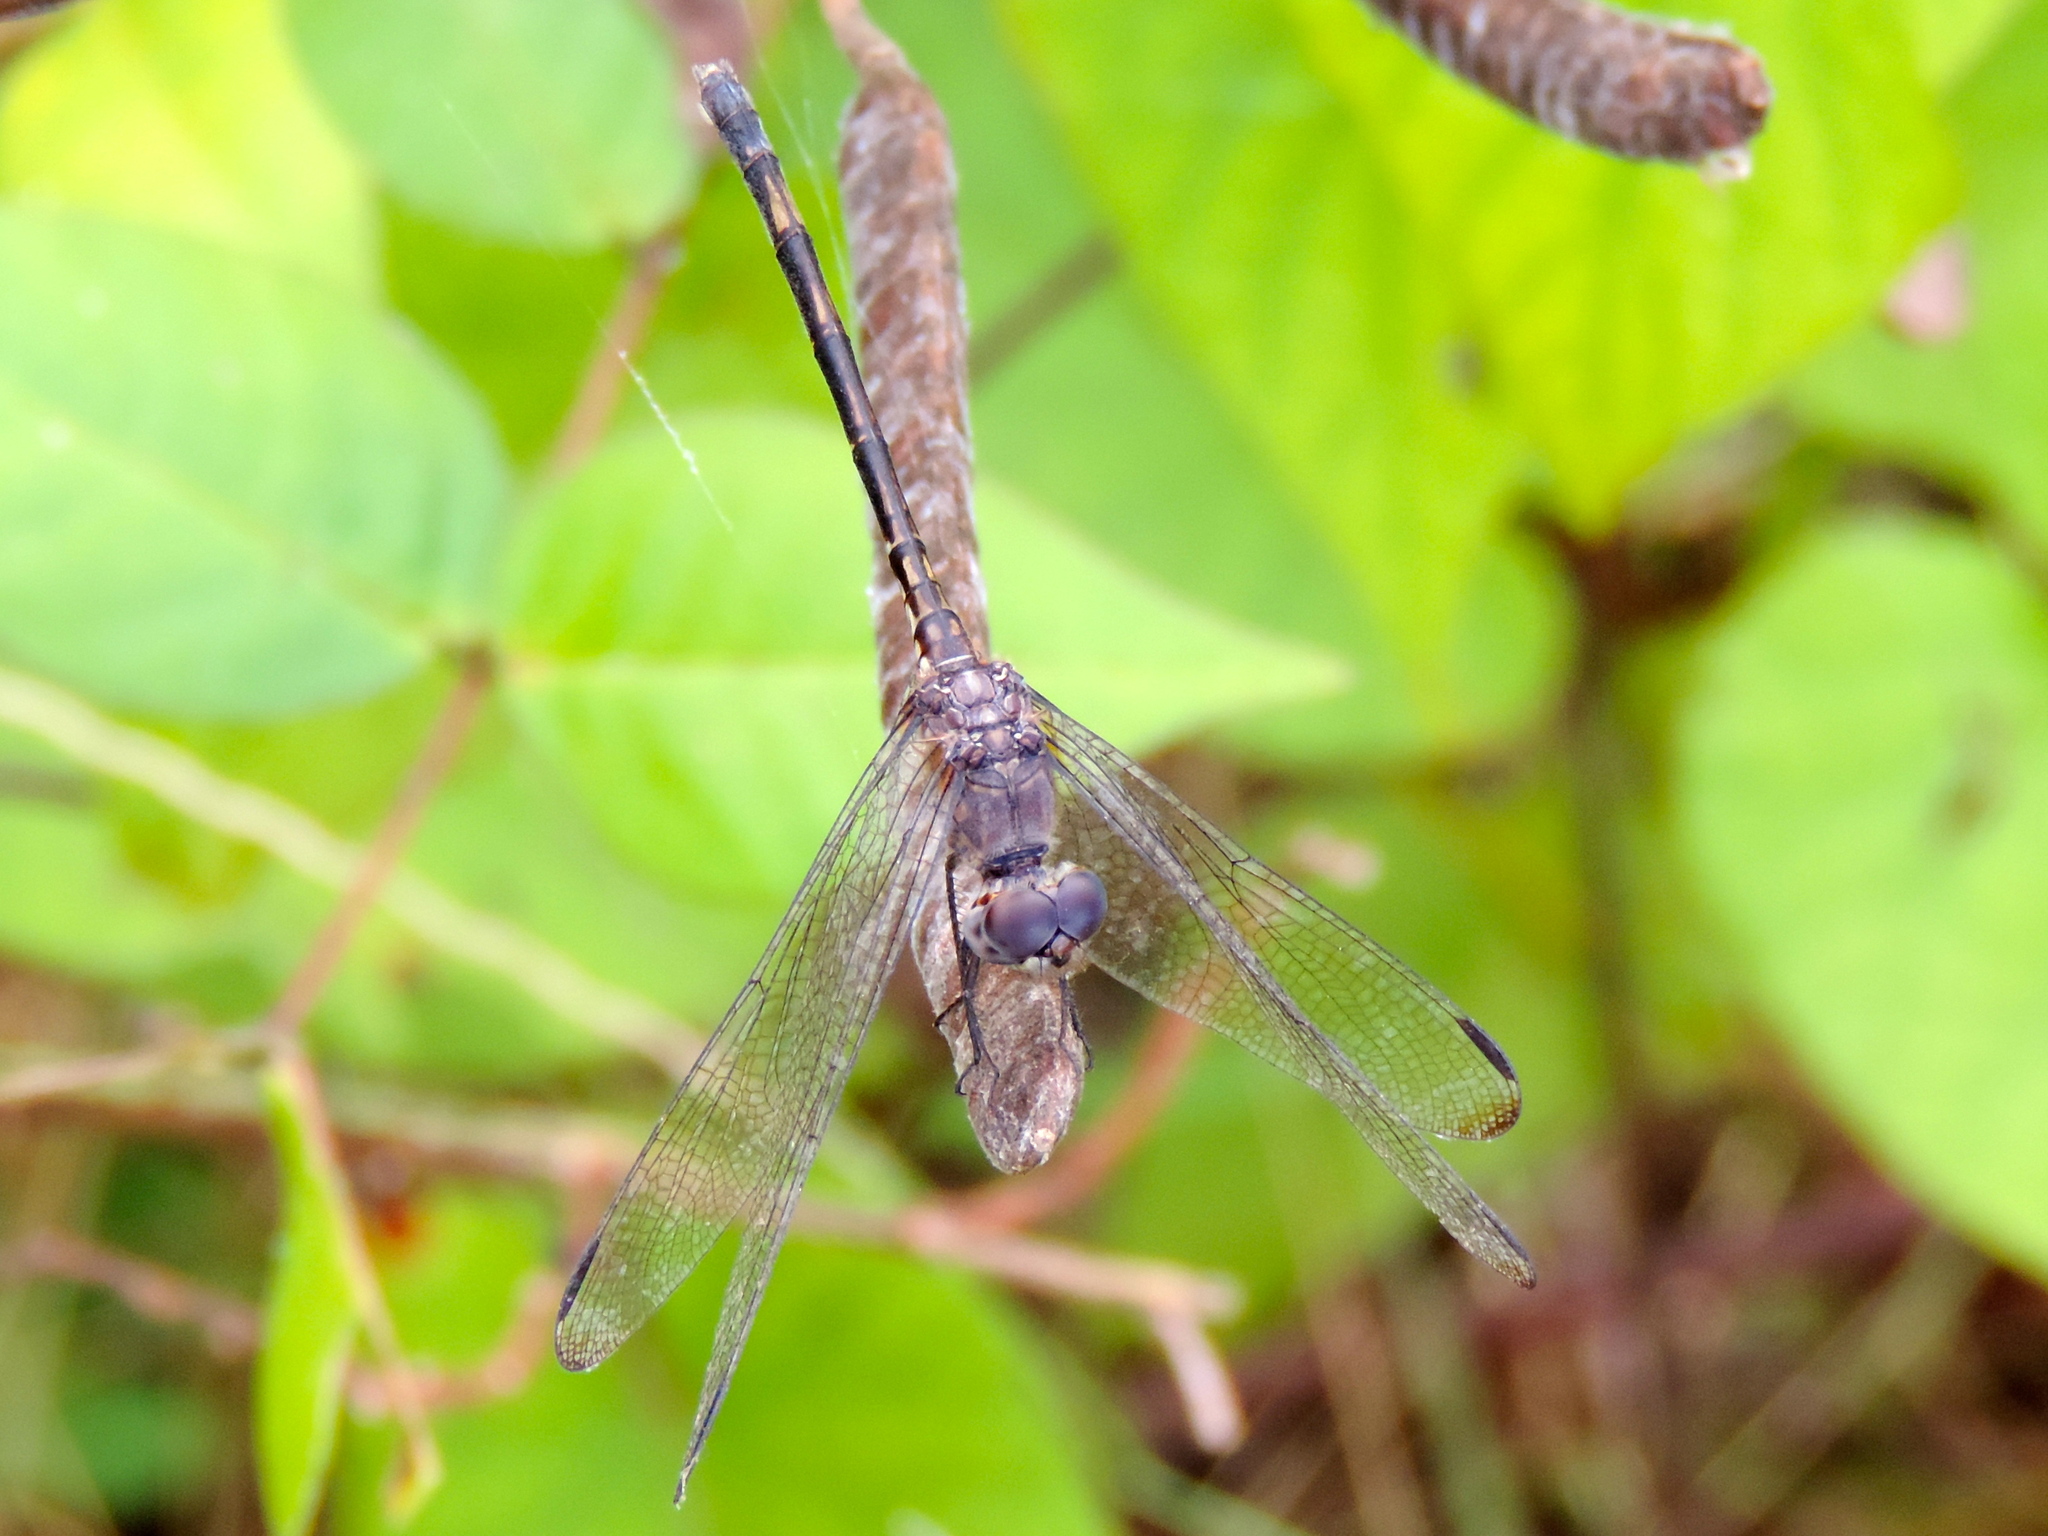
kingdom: Animalia
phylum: Arthropoda
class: Insecta
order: Odonata
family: Libellulidae
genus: Dythemis
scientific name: Dythemis nigrescens
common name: Black setwing
